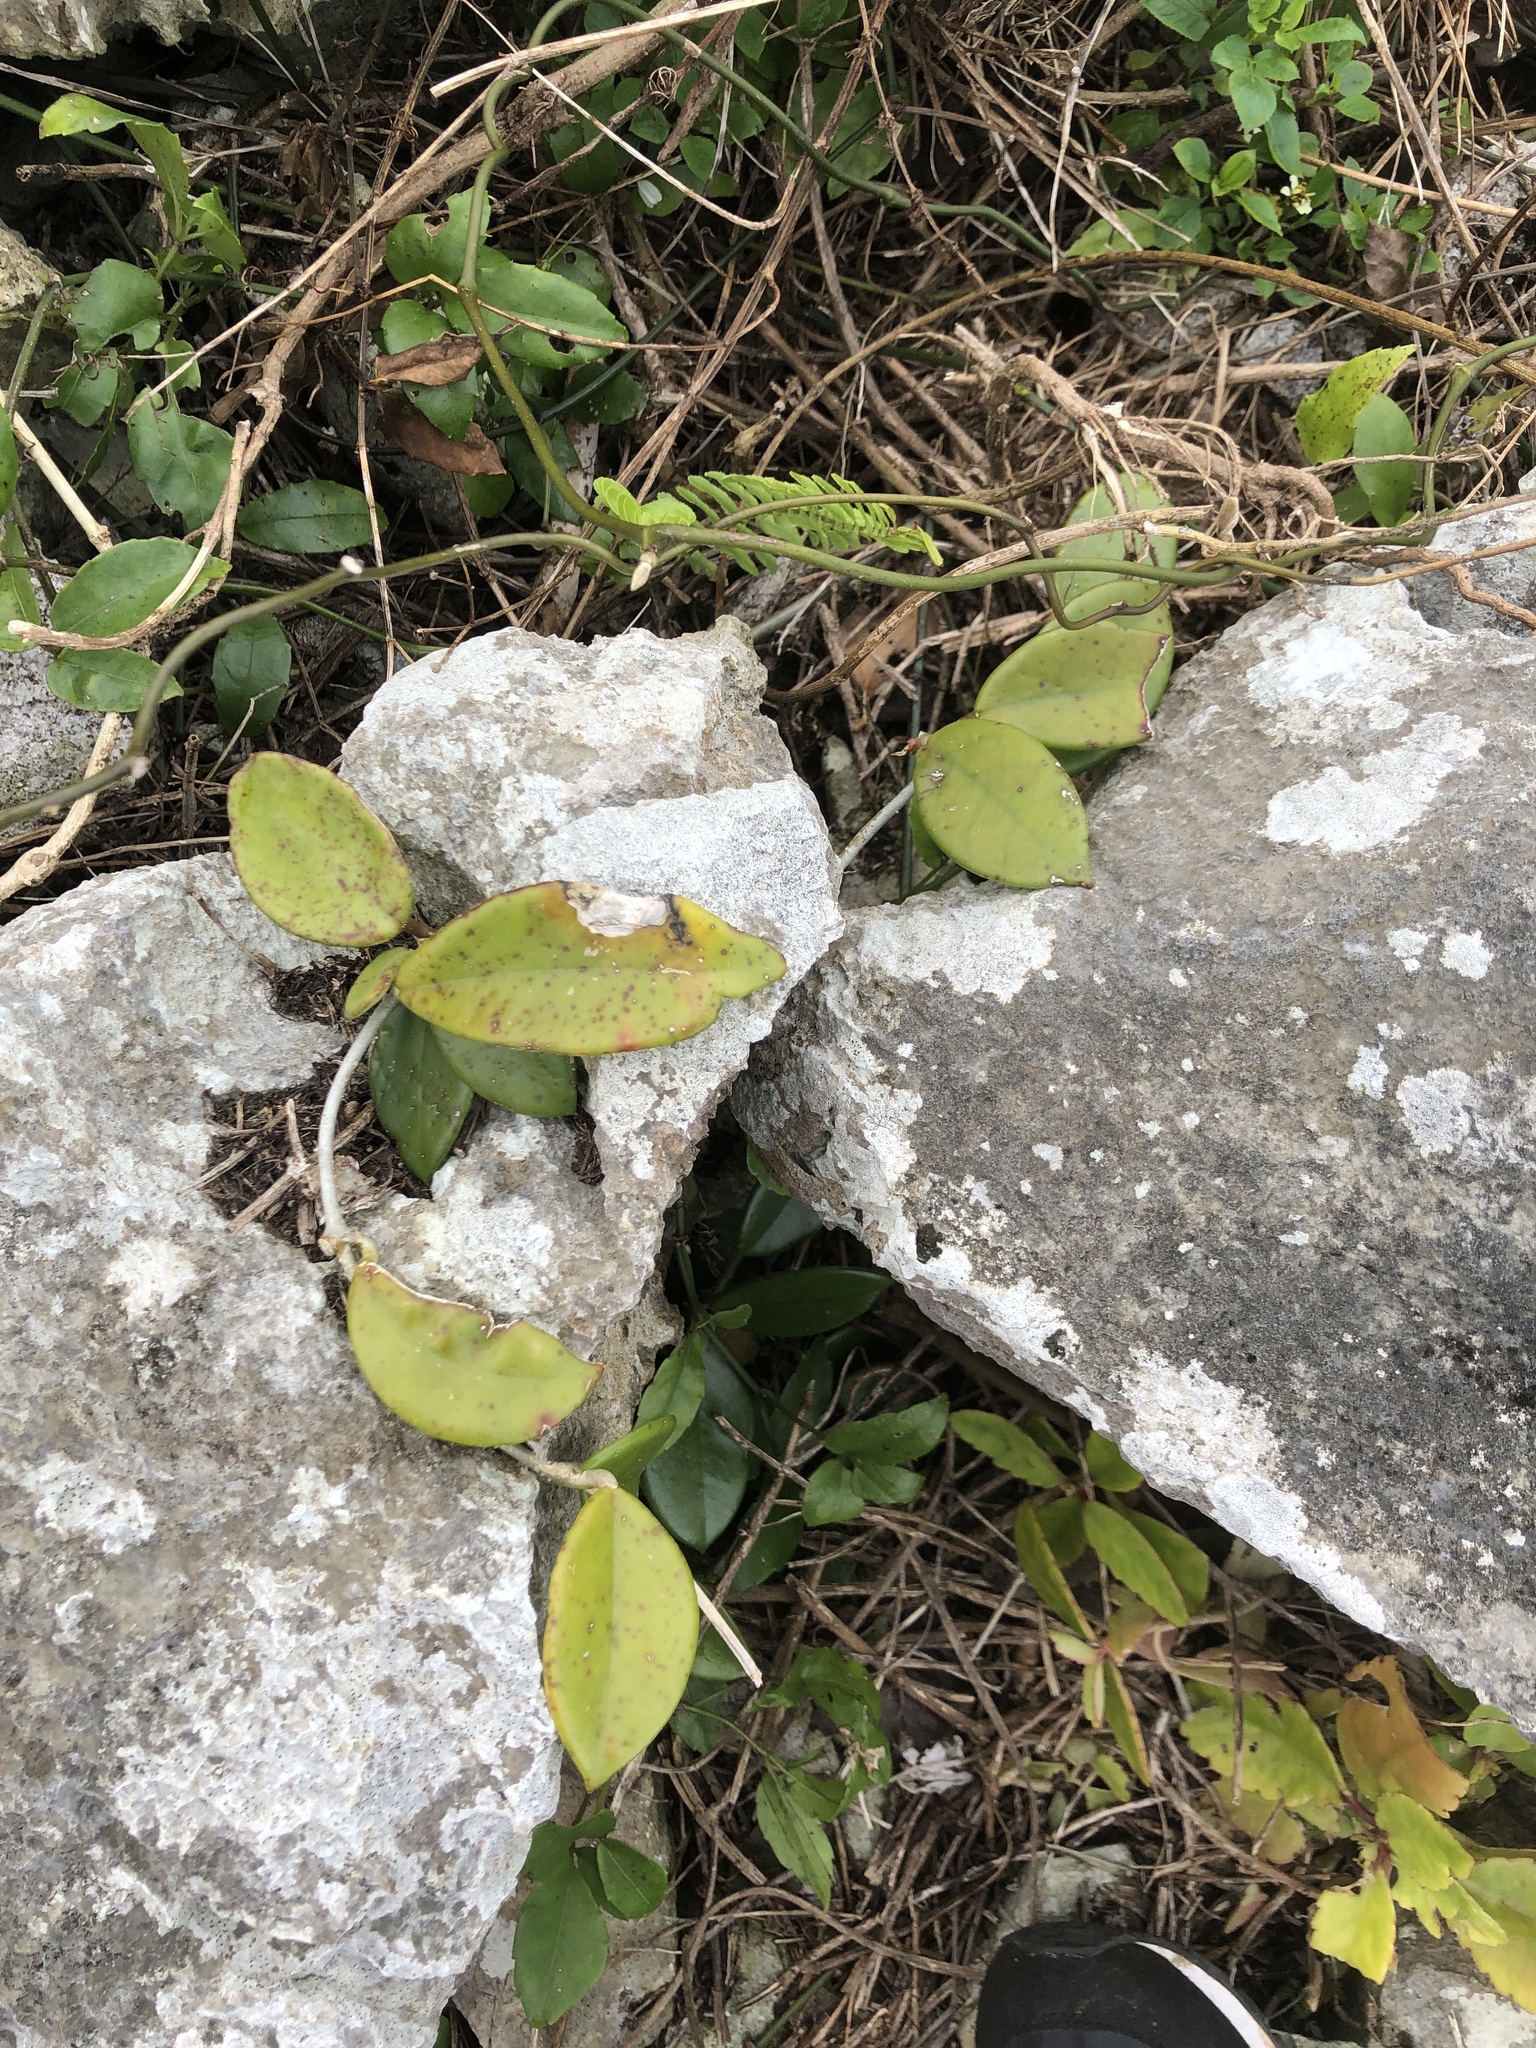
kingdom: Plantae
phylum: Tracheophyta
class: Magnoliopsida
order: Gentianales
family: Apocynaceae
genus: Hoya
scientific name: Hoya carnosa
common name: Honeyplant
